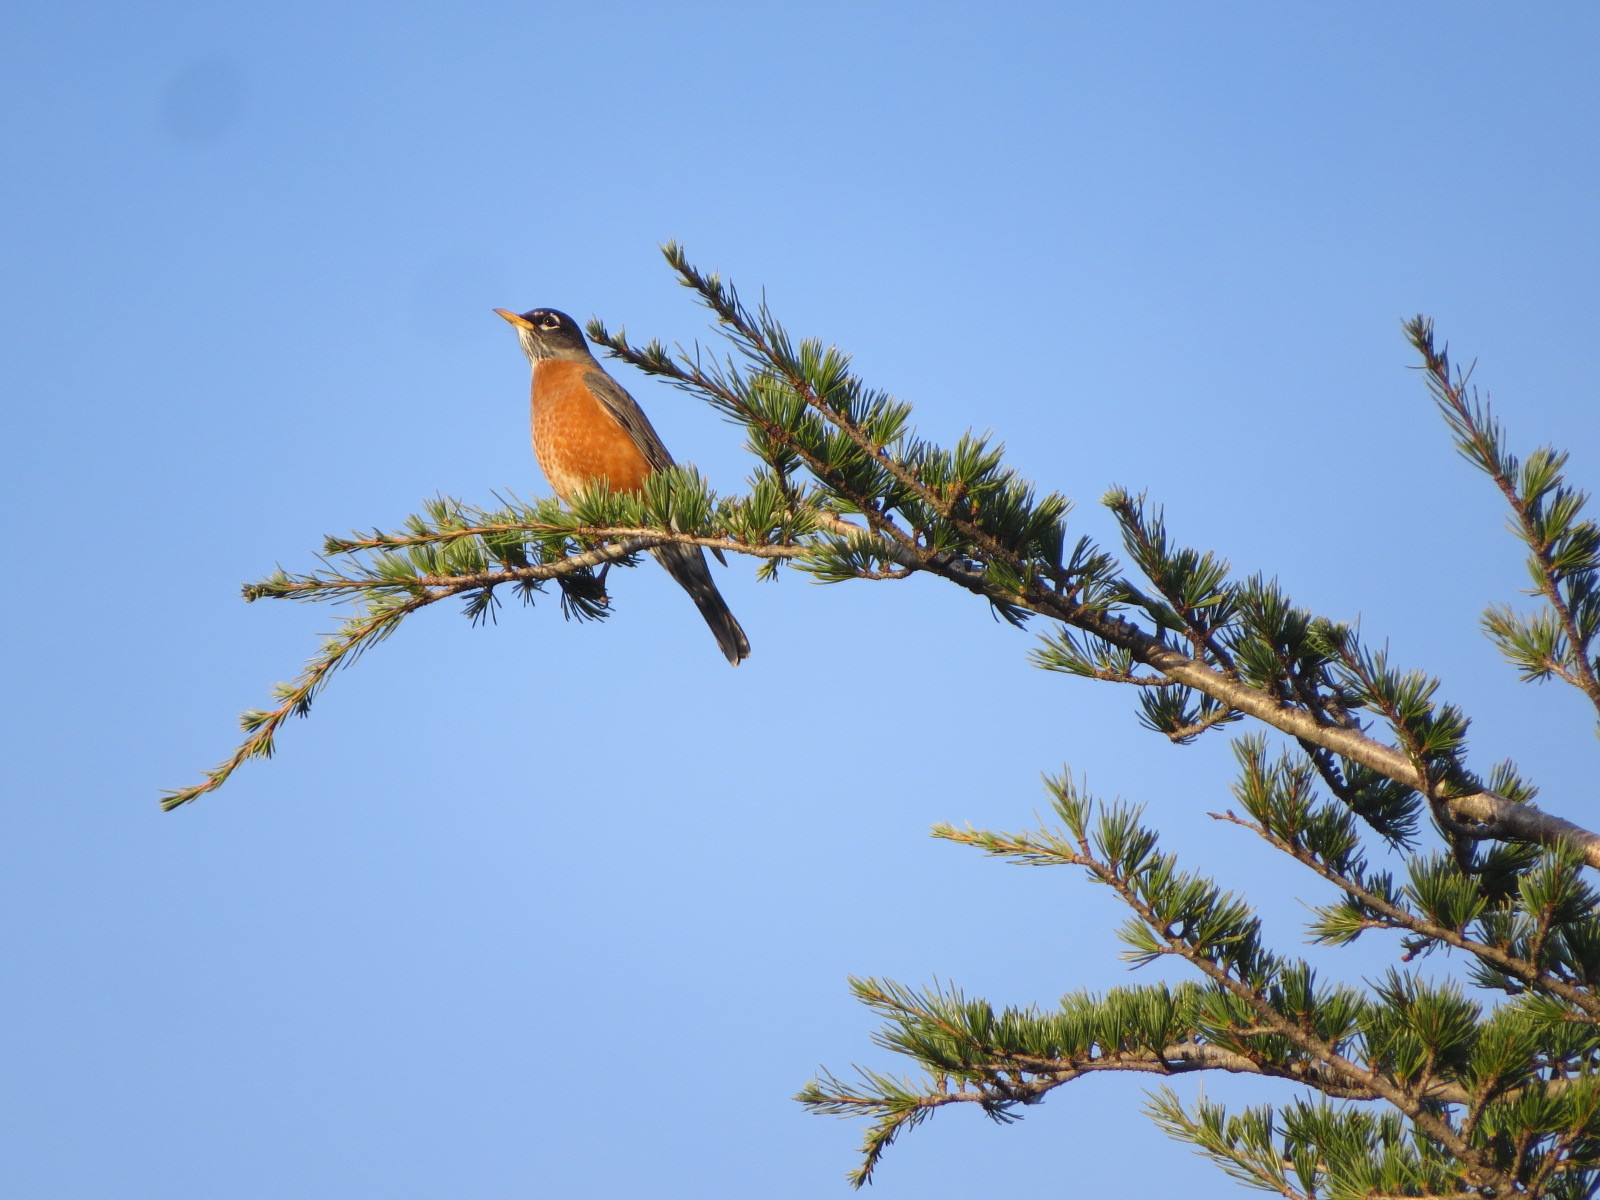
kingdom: Animalia
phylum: Chordata
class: Aves
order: Passeriformes
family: Turdidae
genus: Turdus
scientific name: Turdus migratorius
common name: American robin
